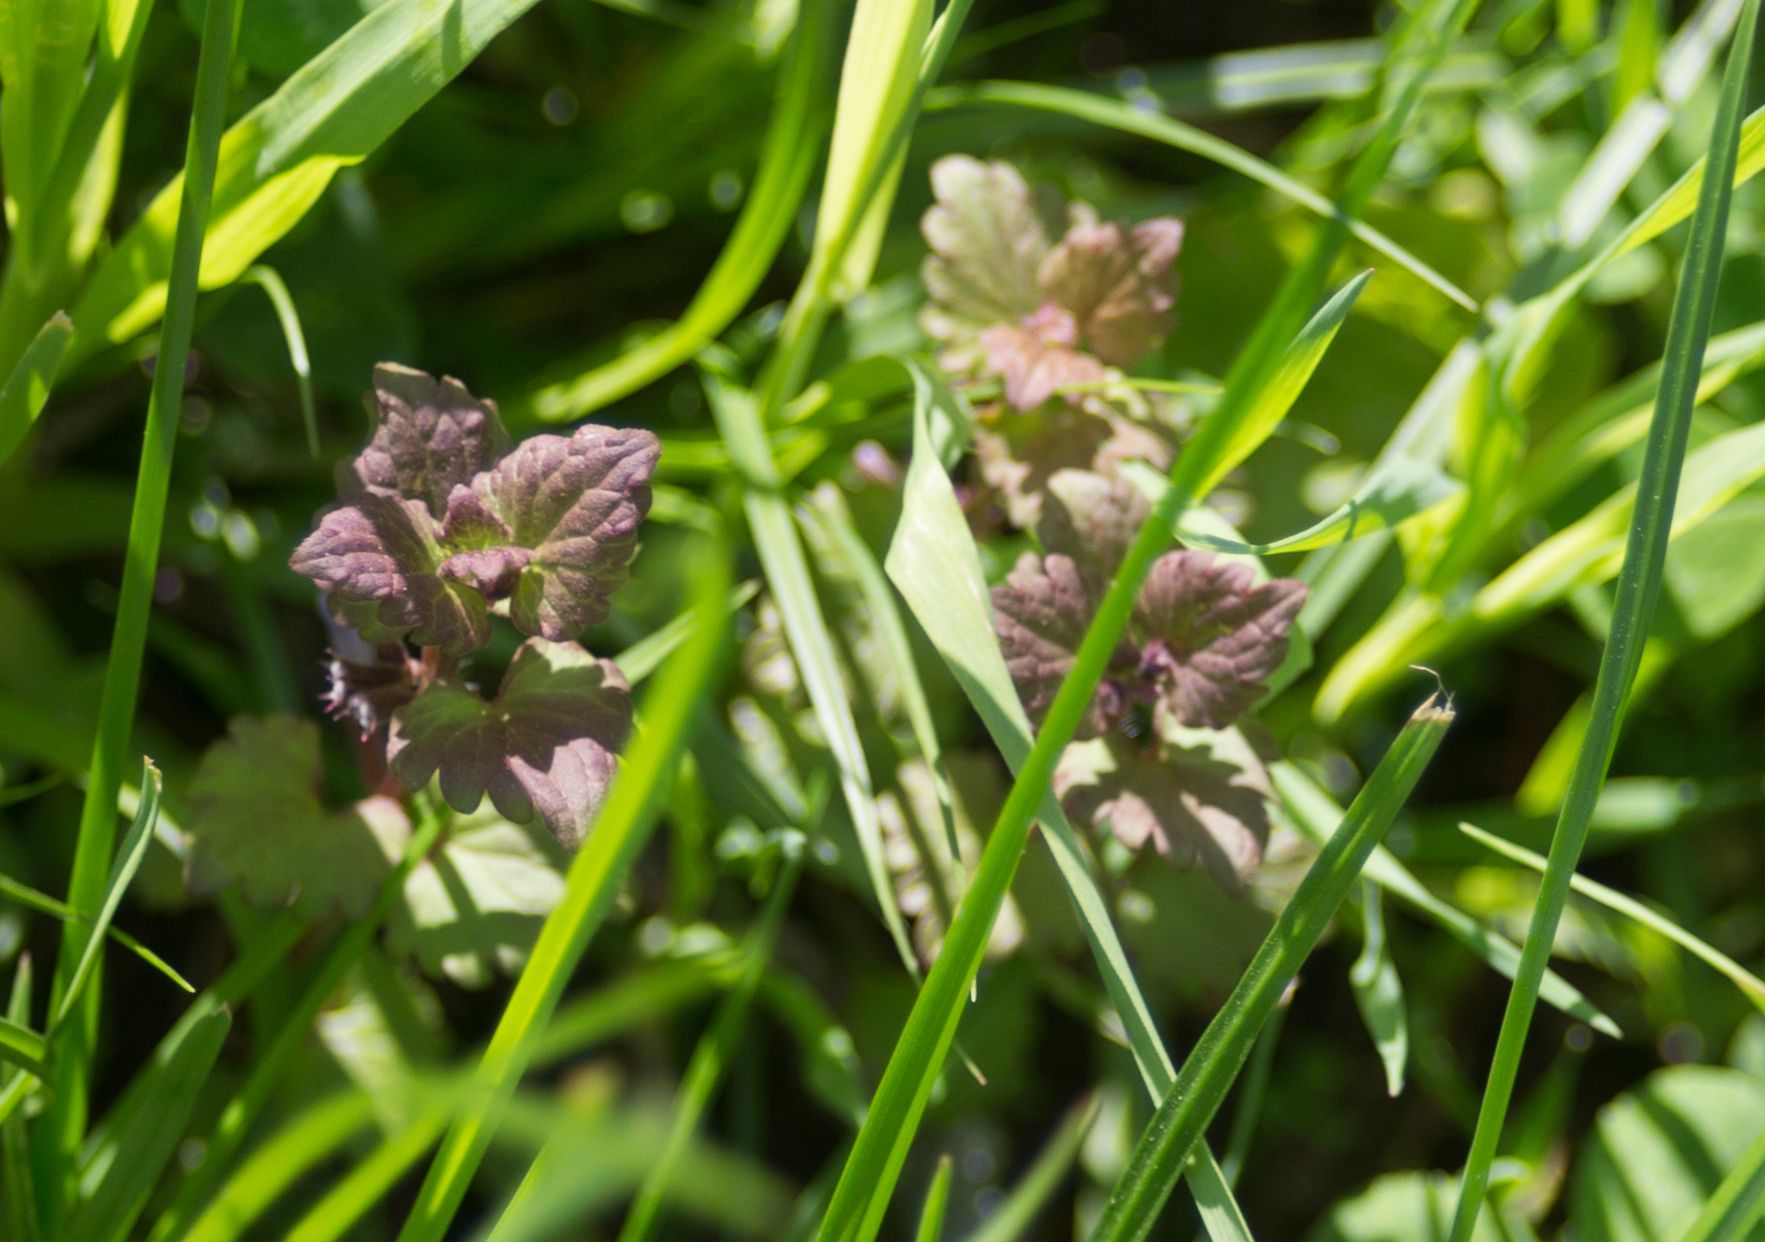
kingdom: Plantae
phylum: Tracheophyta
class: Magnoliopsida
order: Lamiales
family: Lamiaceae
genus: Glechoma
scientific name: Glechoma hederacea
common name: Ground ivy
